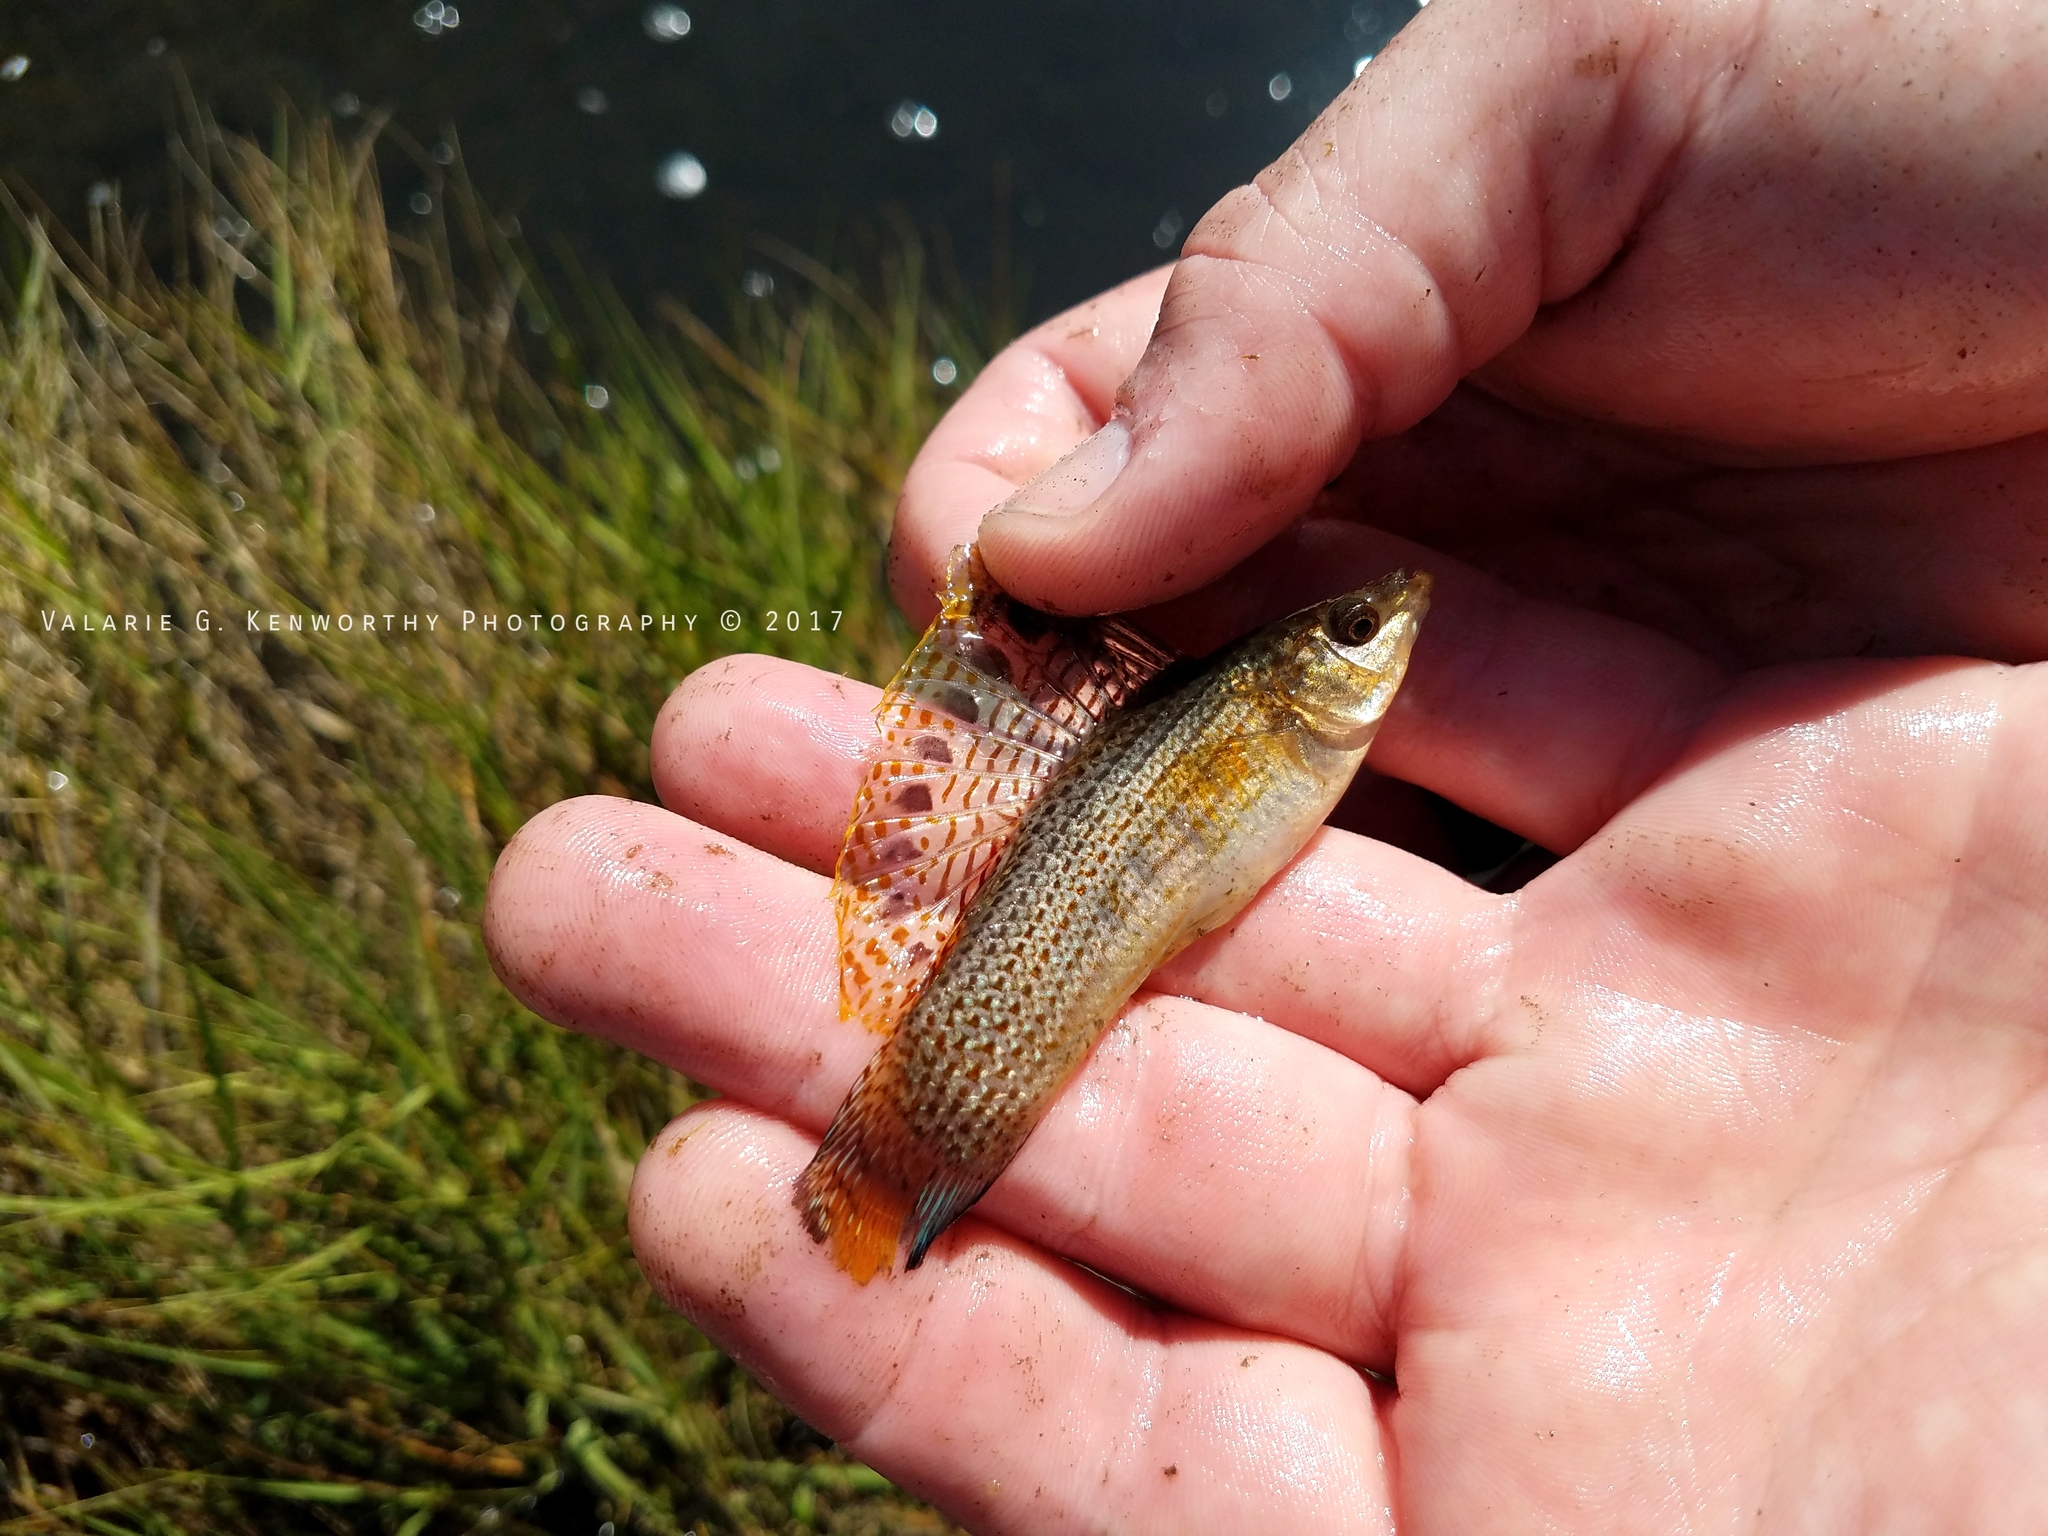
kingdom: Animalia
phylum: Chordata
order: Cyprinodontiformes
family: Poeciliidae
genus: Poecilia
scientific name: Poecilia latipinna
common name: Sailfin molly
